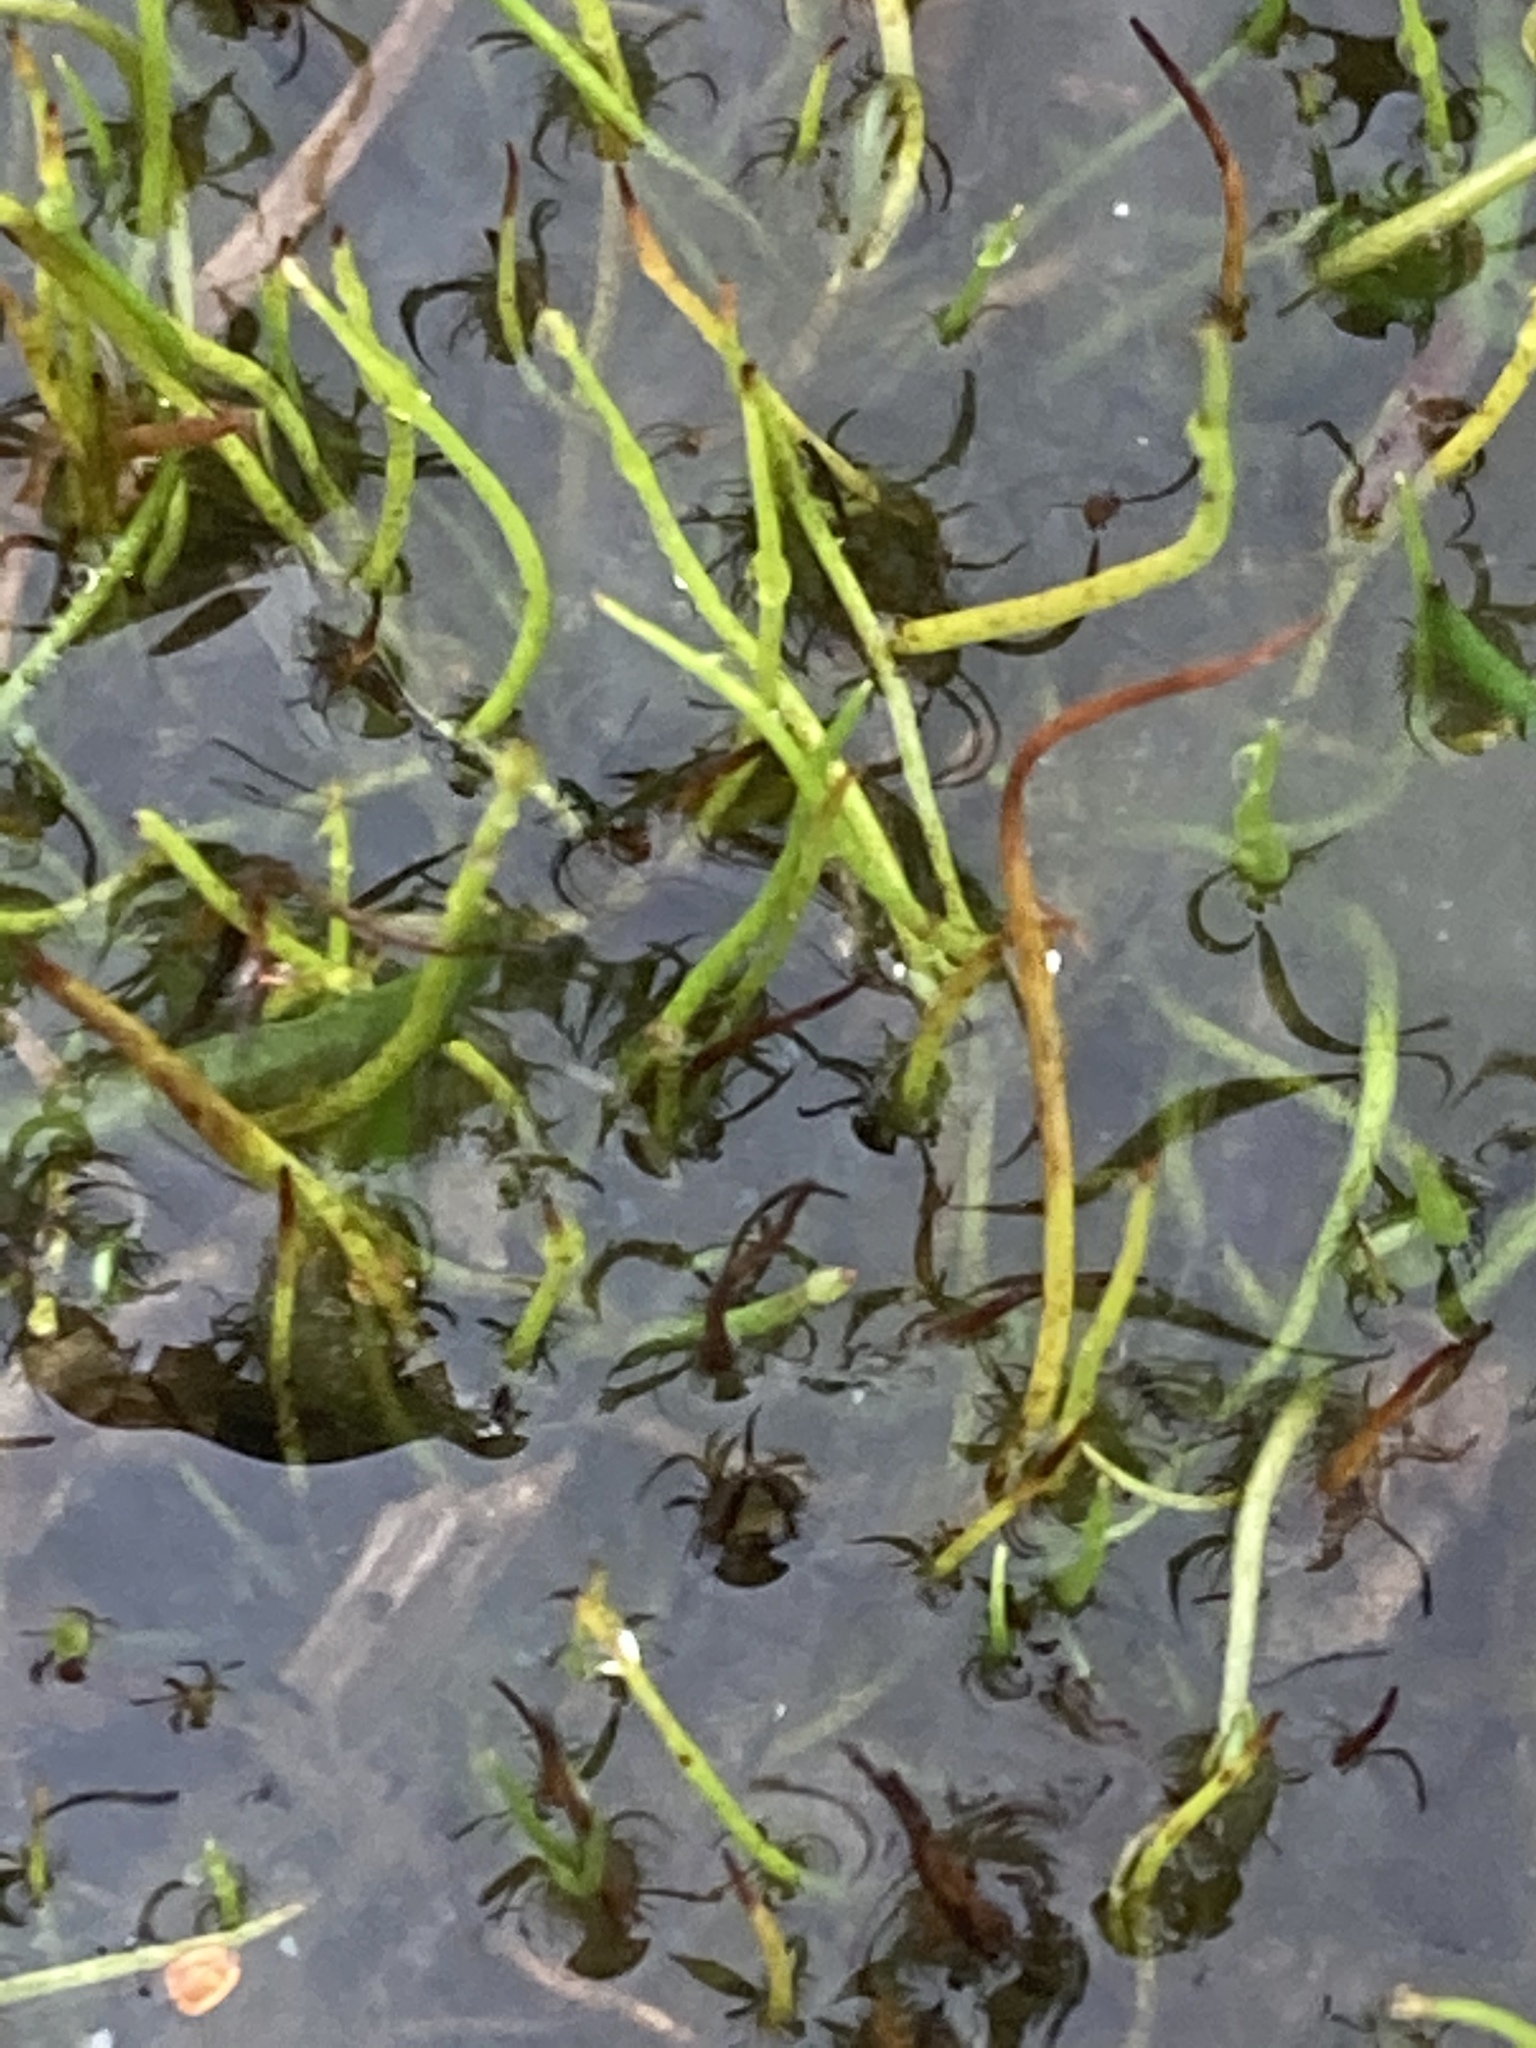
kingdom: Plantae
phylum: Tracheophyta
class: Polypodiopsida
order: Salviniales
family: Marsileaceae
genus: Pilularia
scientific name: Pilularia globulifera
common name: Pillwort
